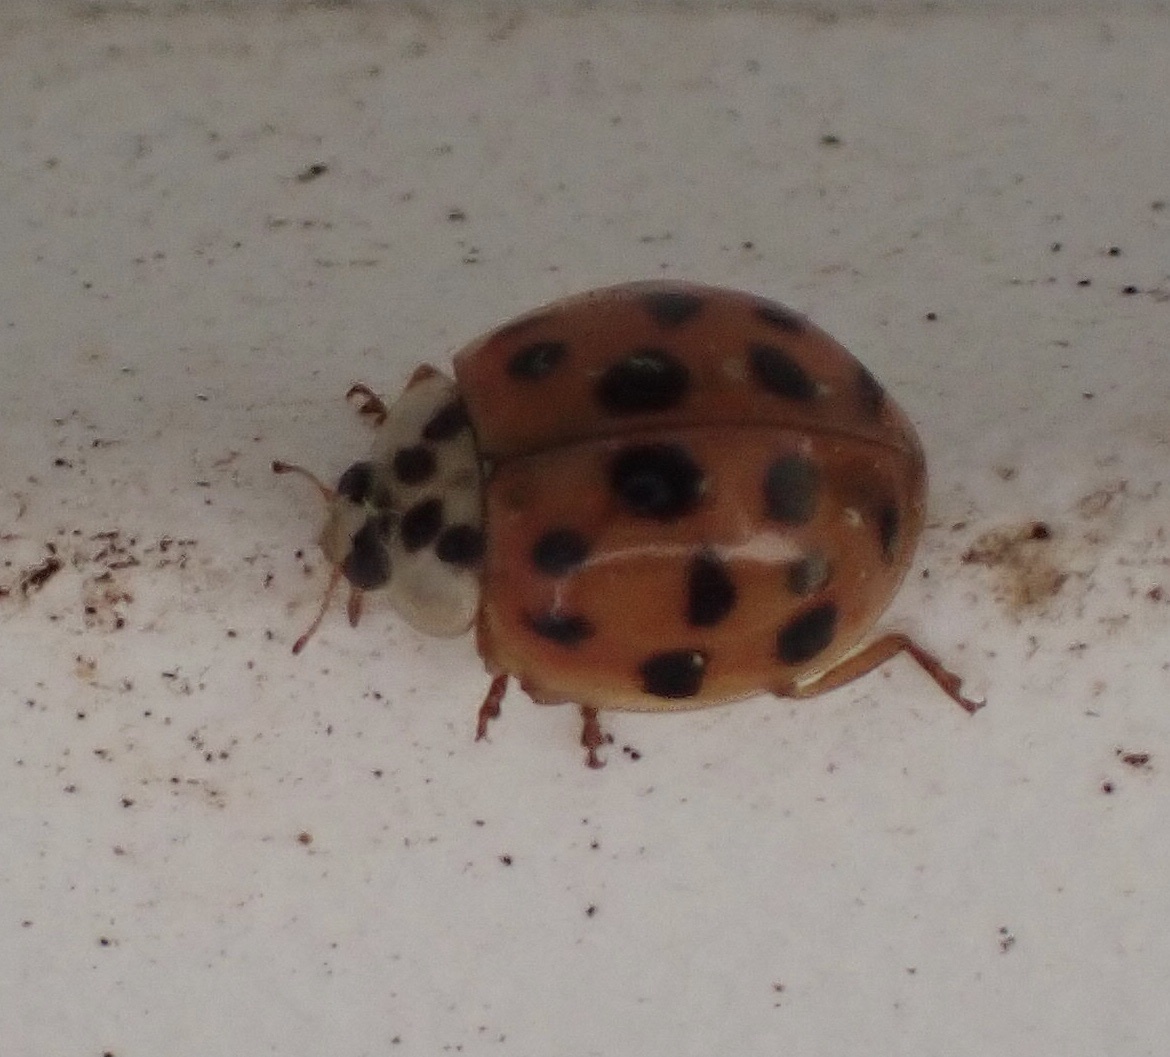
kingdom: Animalia
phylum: Arthropoda
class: Insecta
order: Coleoptera
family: Coccinellidae
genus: Harmonia
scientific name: Harmonia axyridis
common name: Harlequin ladybird
